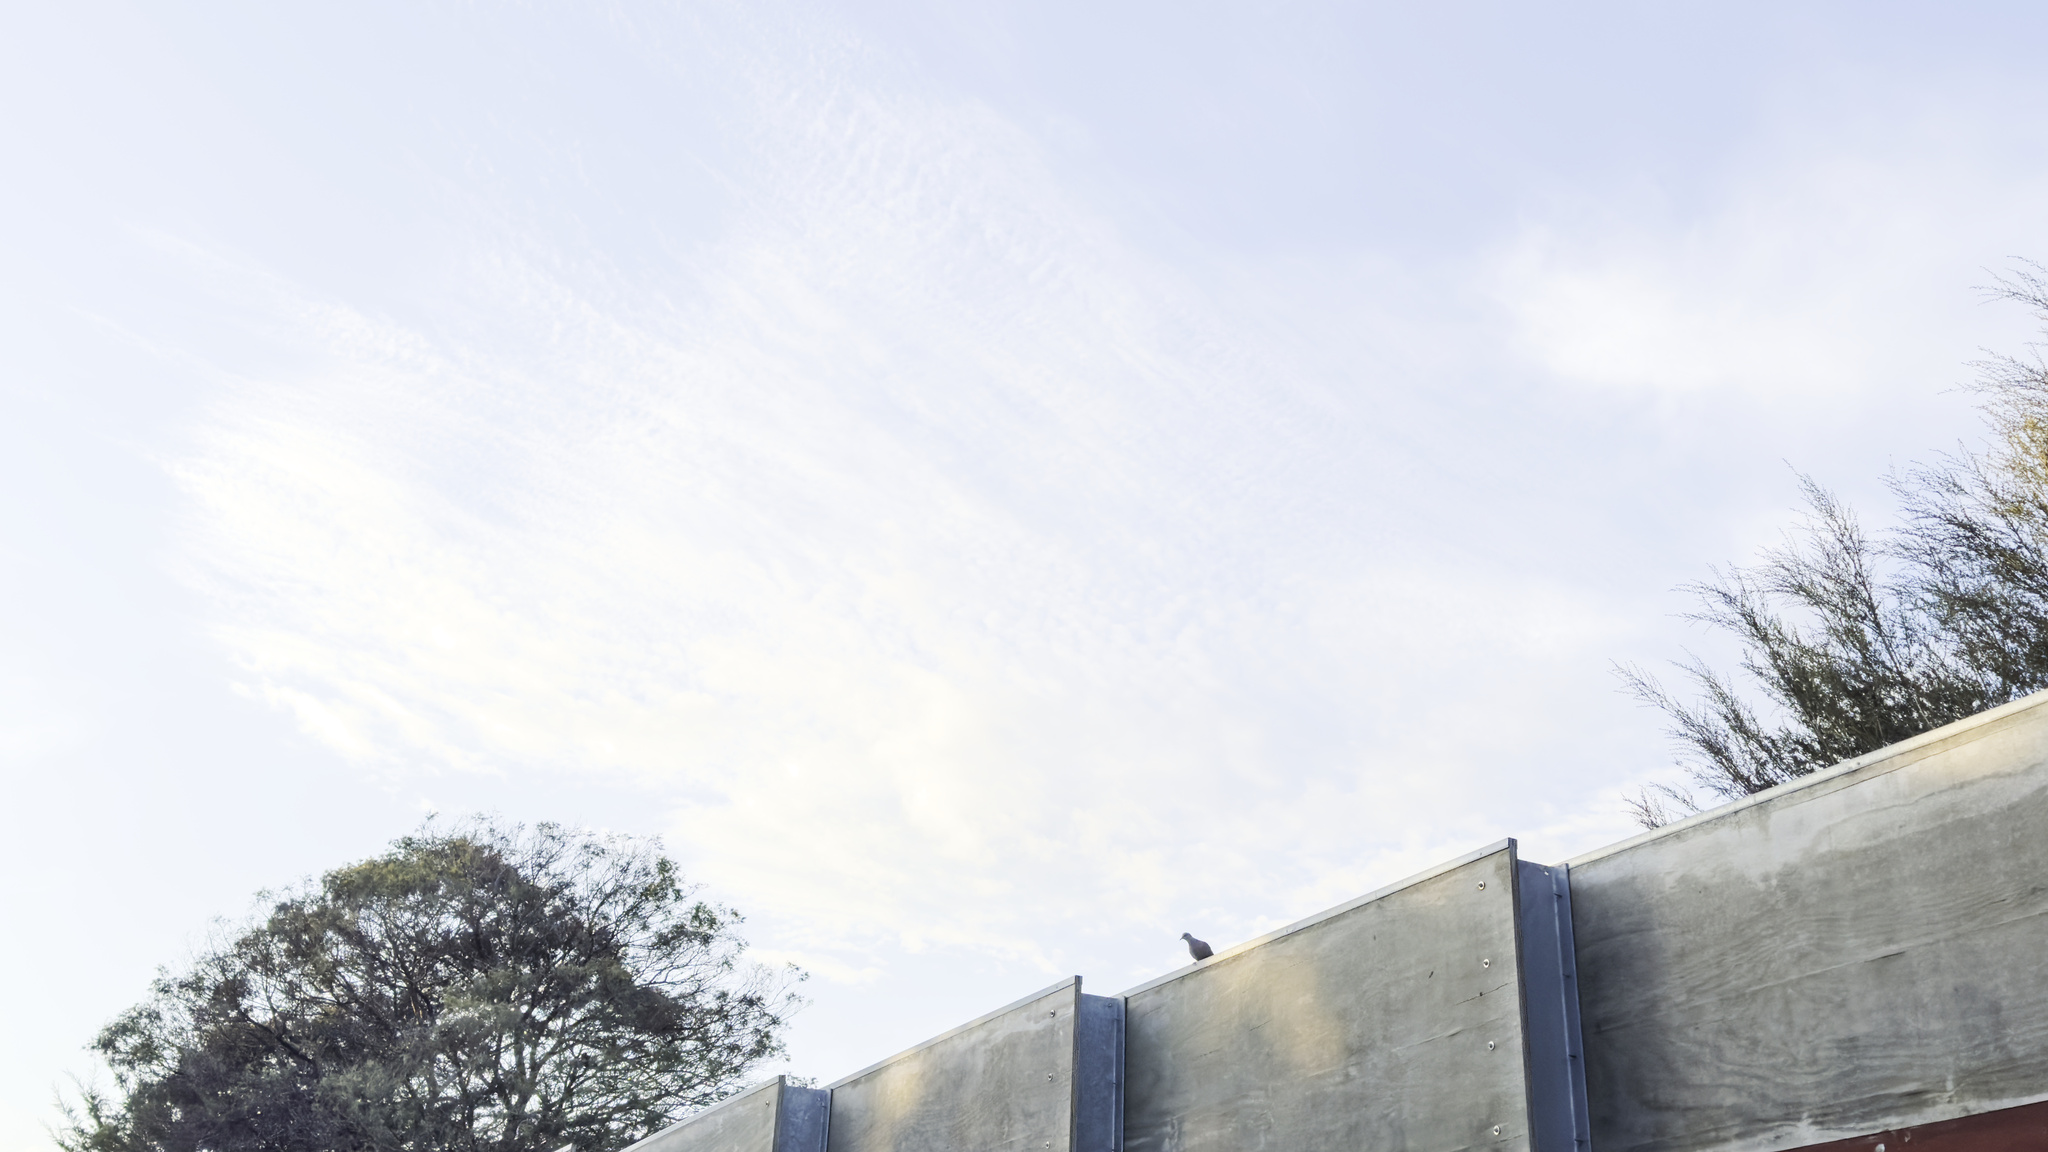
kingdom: Animalia
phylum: Chordata
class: Aves
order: Columbiformes
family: Columbidae
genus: Spilopelia
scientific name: Spilopelia chinensis
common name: Spotted dove
